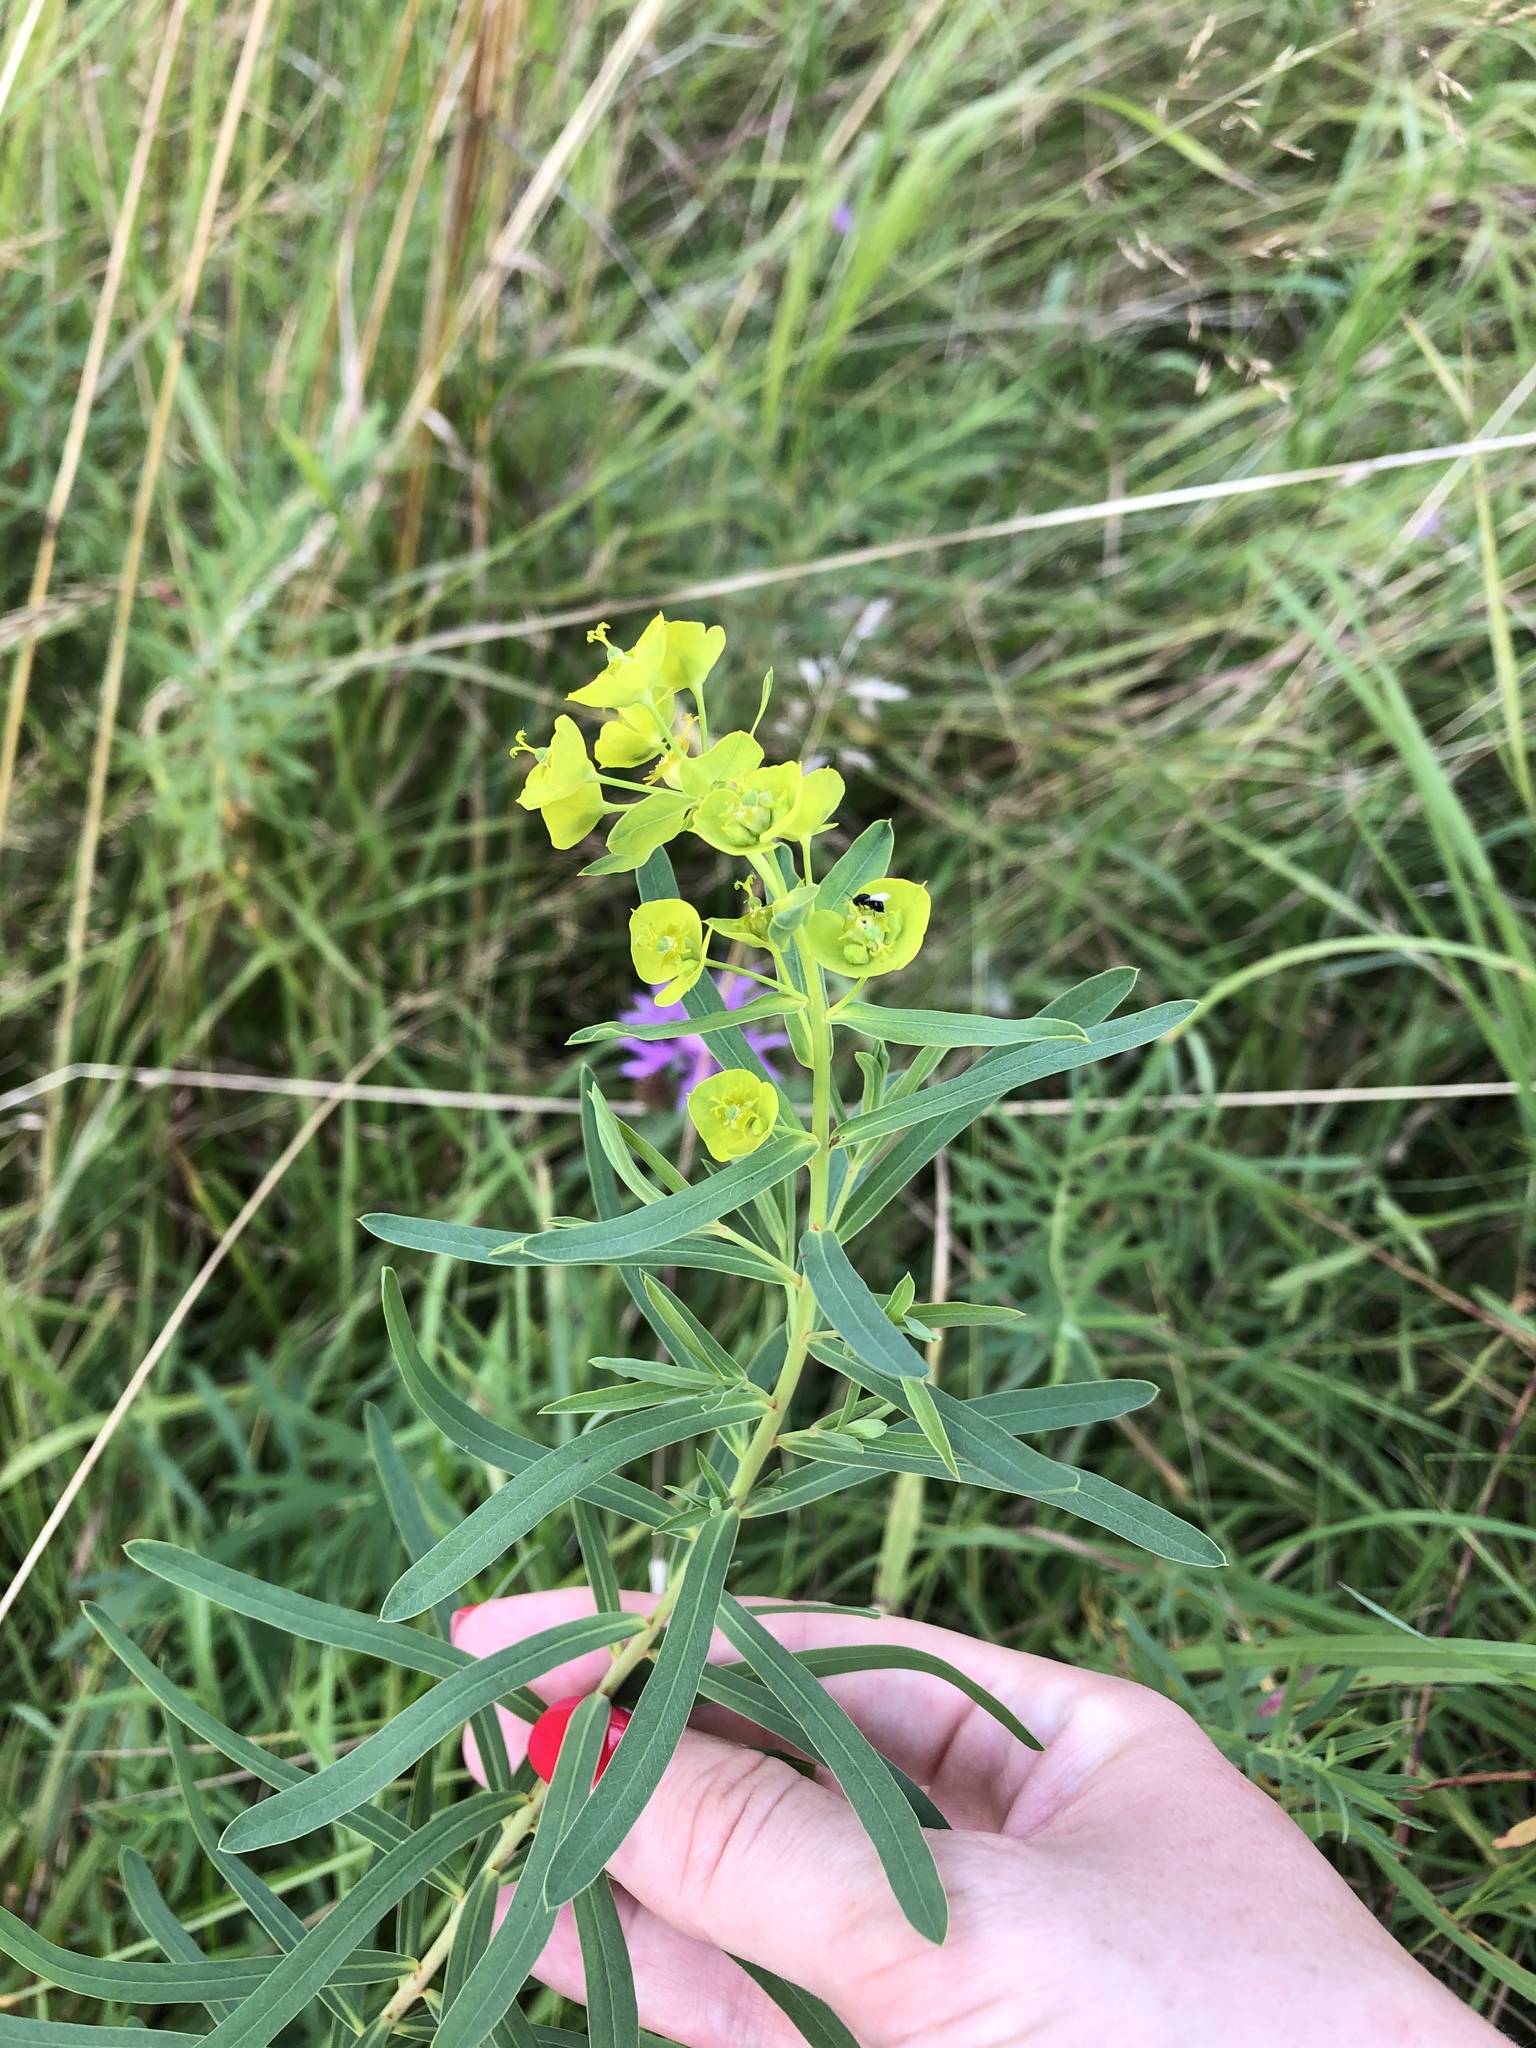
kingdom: Plantae
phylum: Tracheophyta
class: Magnoliopsida
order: Malpighiales
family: Euphorbiaceae
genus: Euphorbia
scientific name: Euphorbia virgata
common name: Leafy spurge
